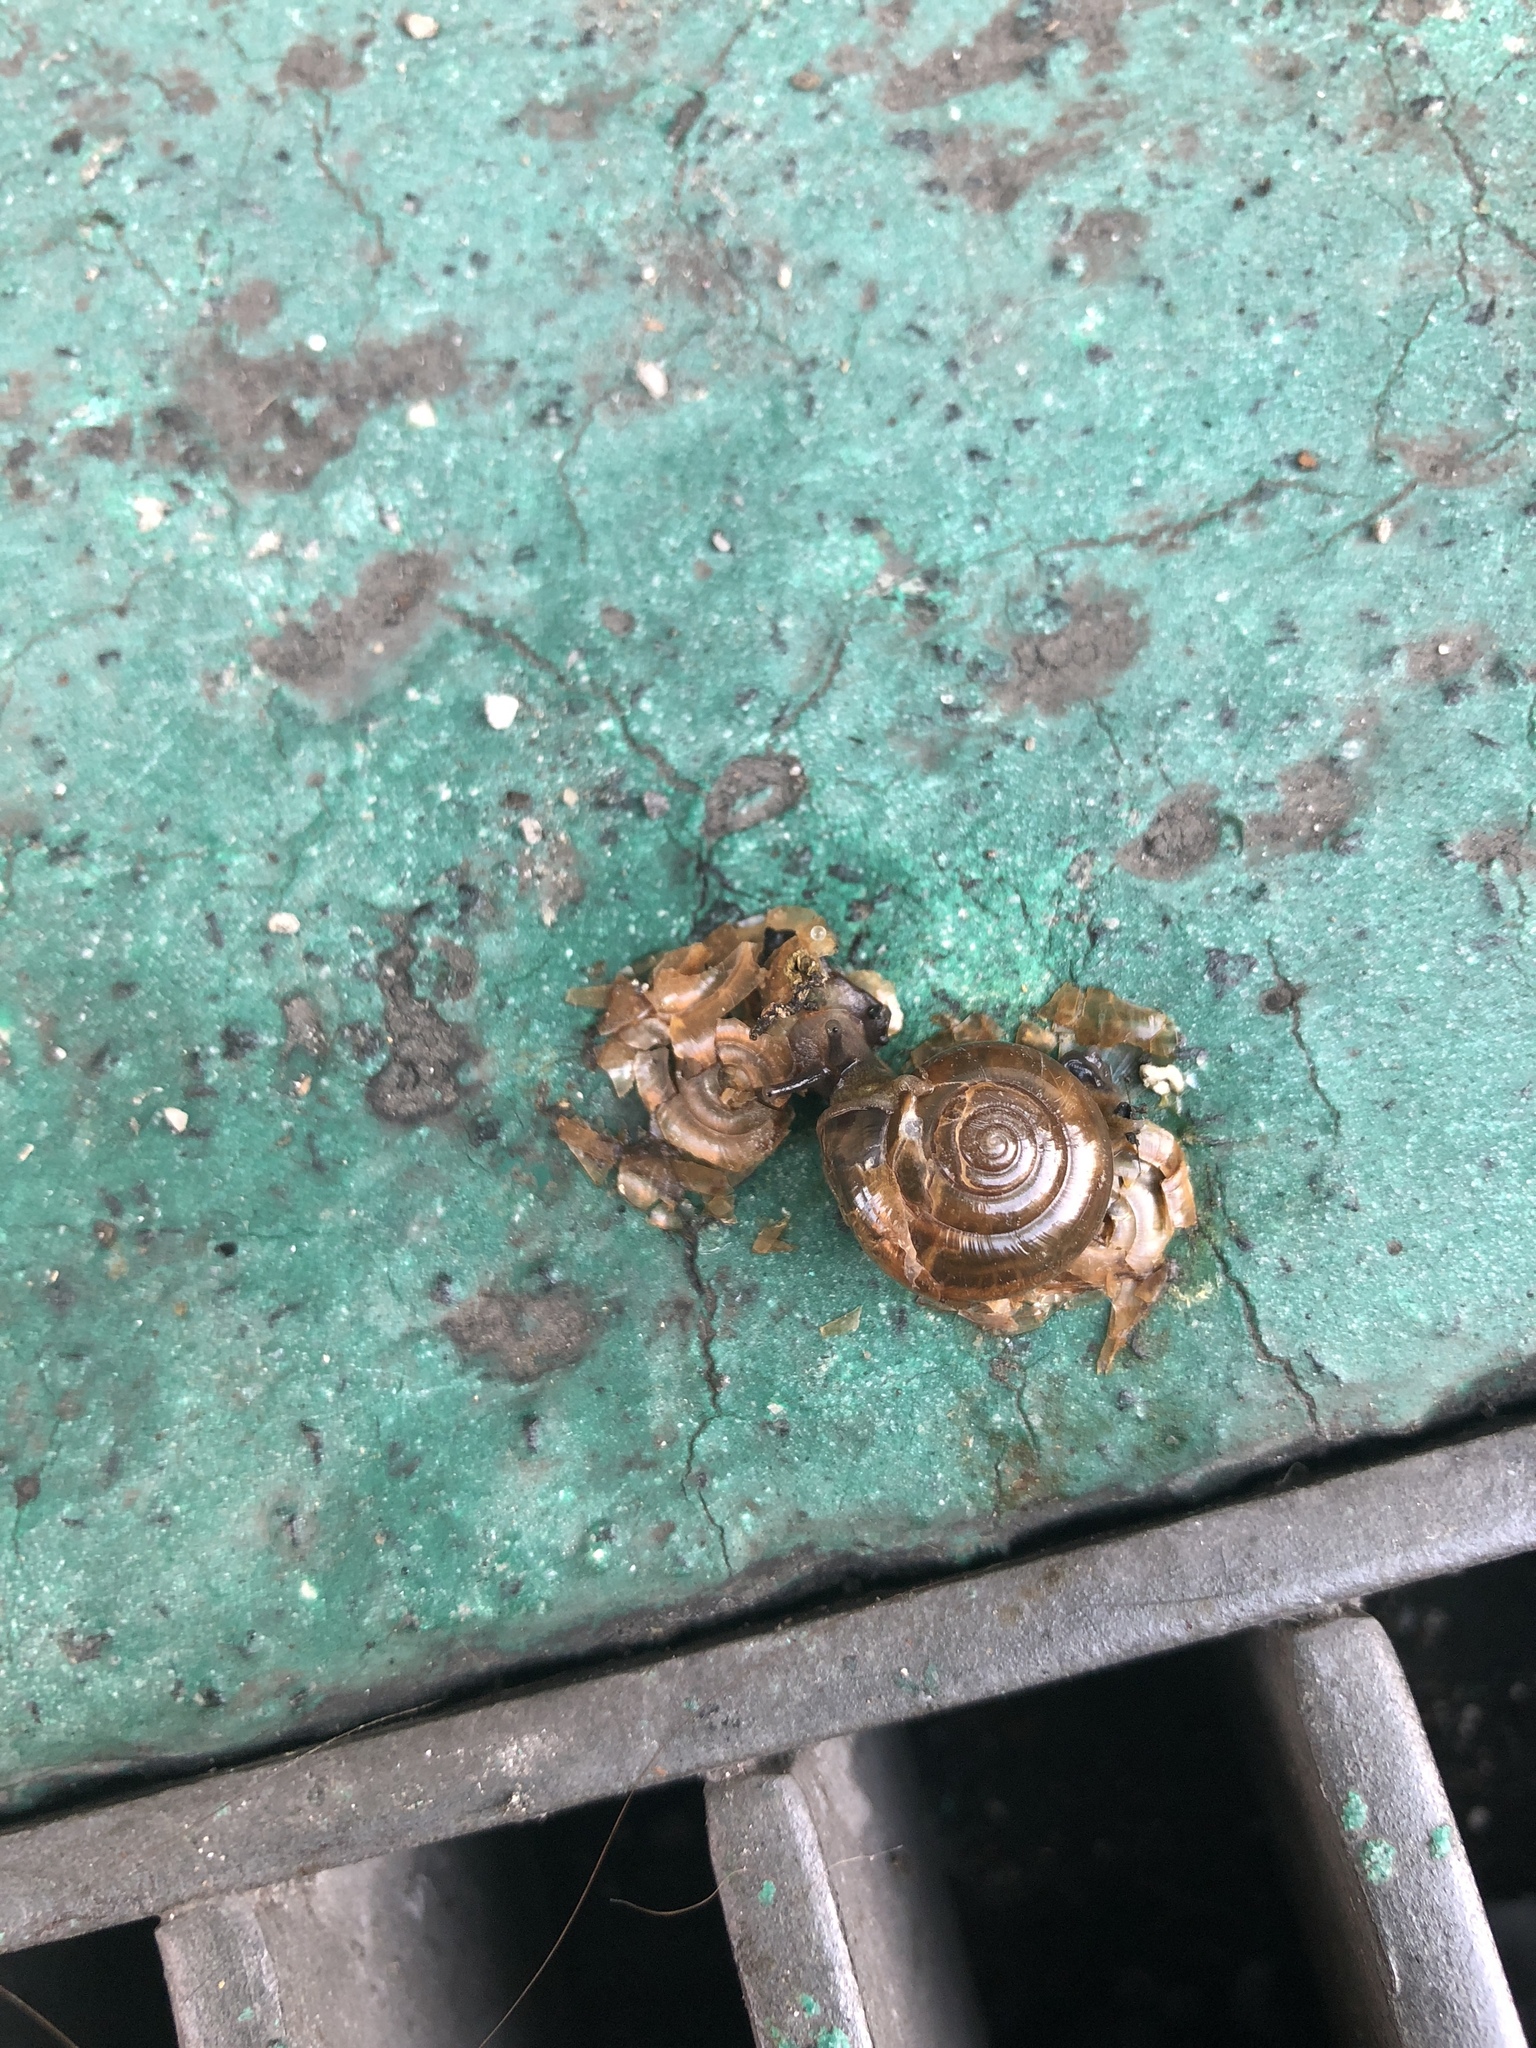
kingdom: Animalia
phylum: Mollusca
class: Gastropoda
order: Stylommatophora
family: Ariophantidae
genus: Macrochlamys
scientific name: Macrochlamys hippocastaneum
